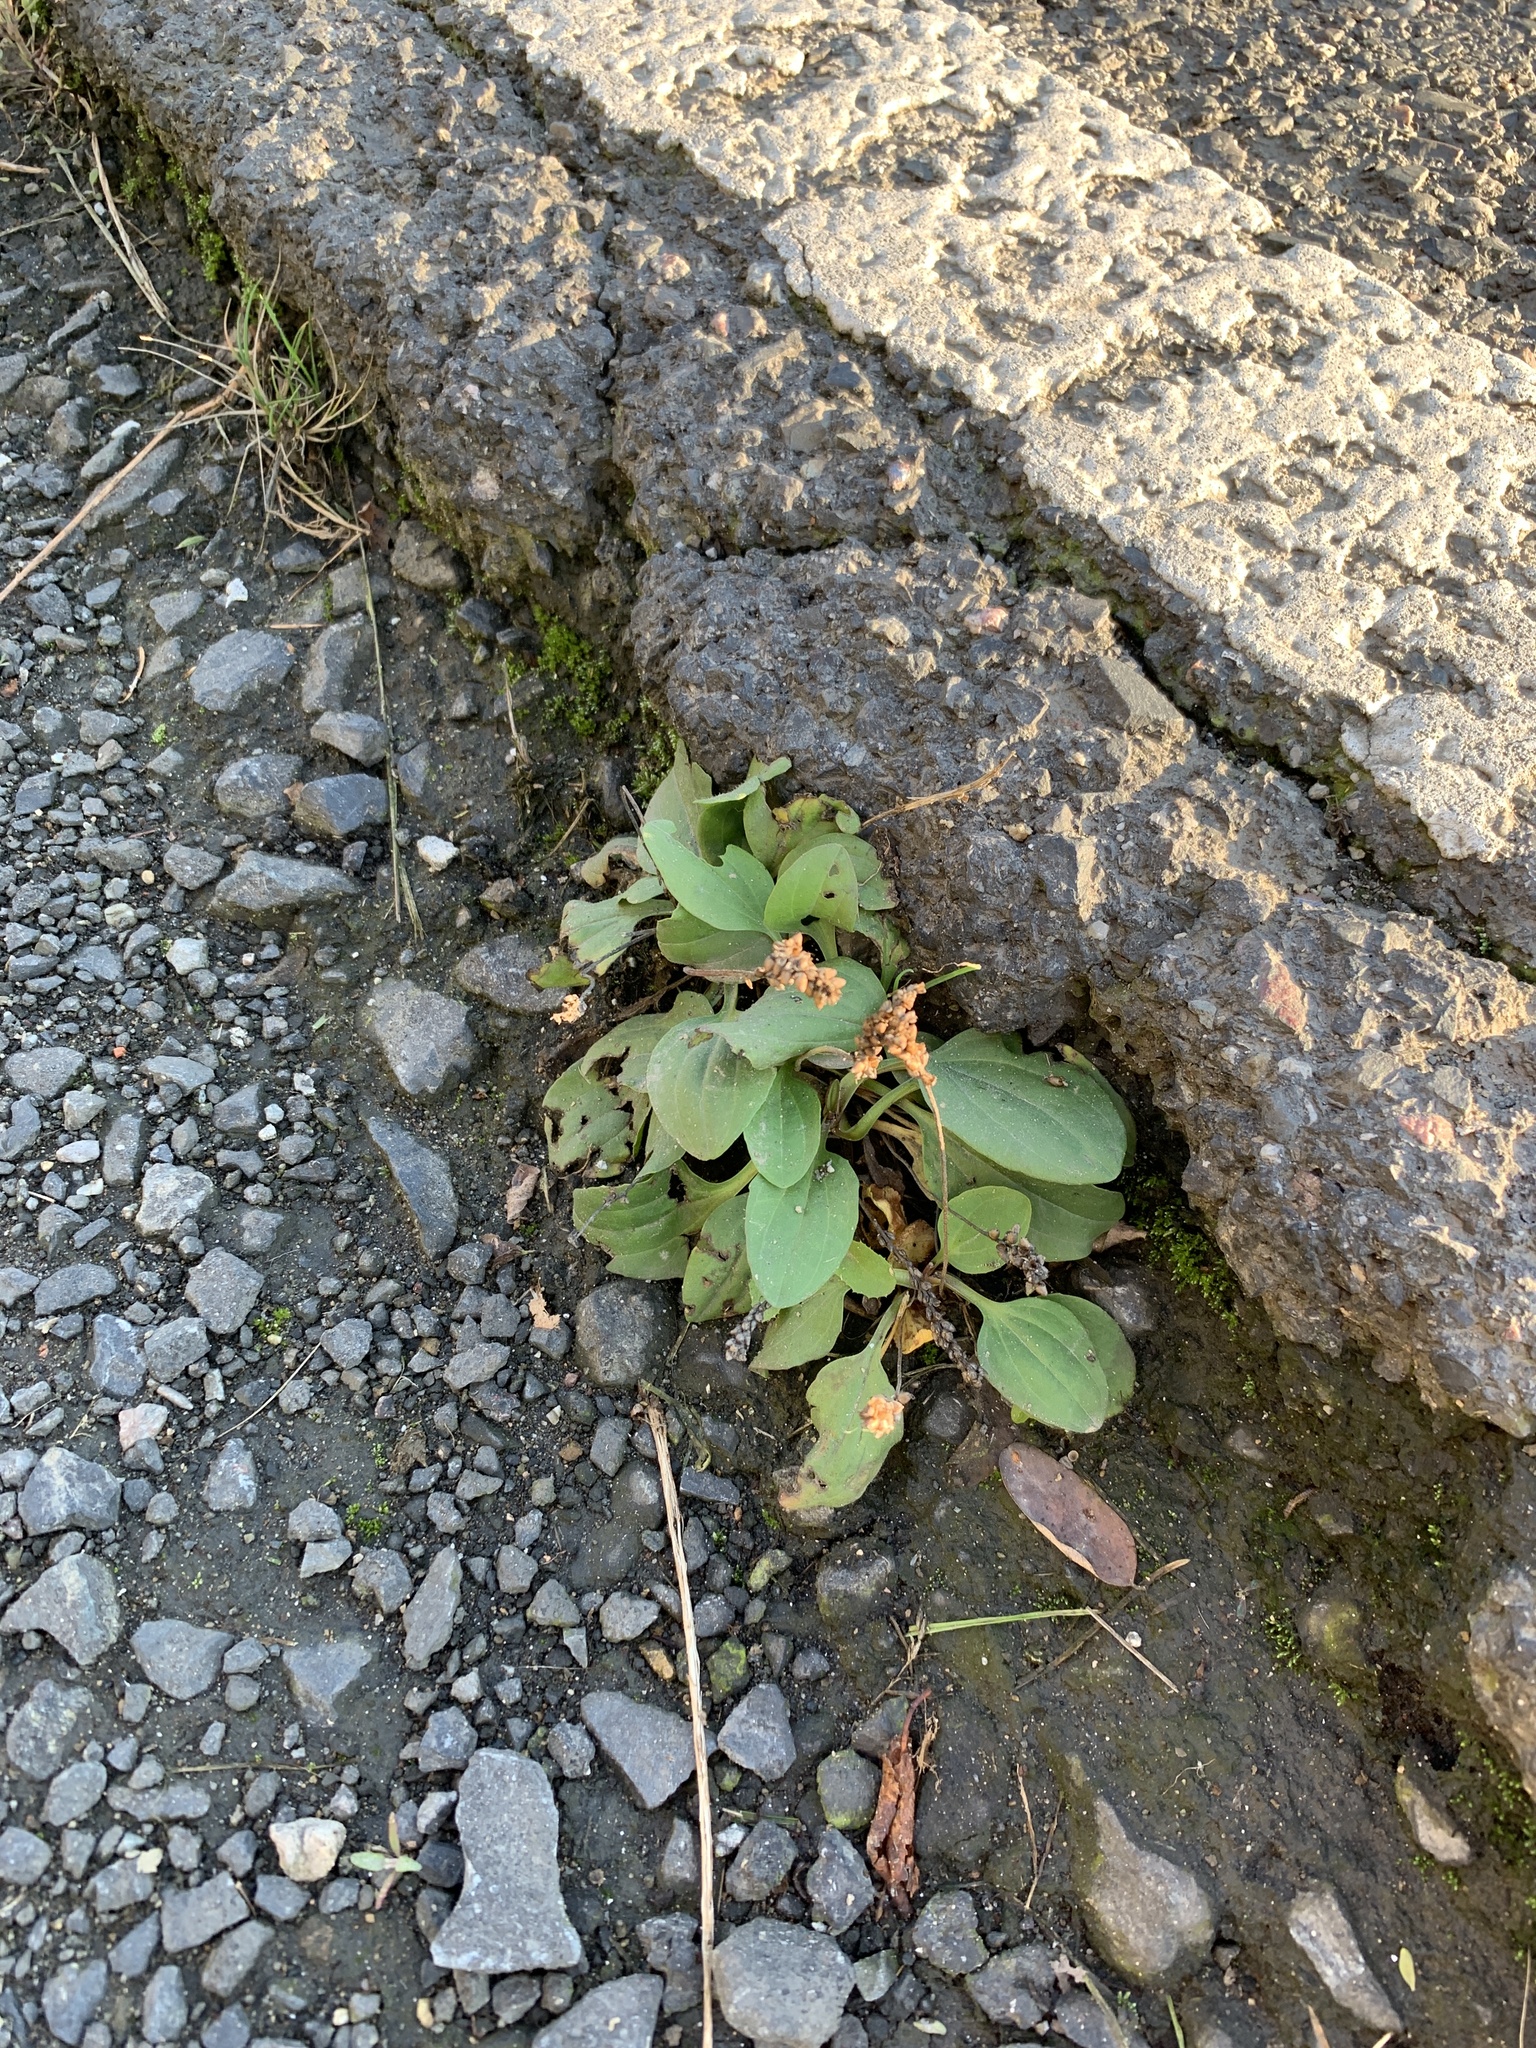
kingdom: Plantae
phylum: Tracheophyta
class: Magnoliopsida
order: Lamiales
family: Plantaginaceae
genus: Plantago
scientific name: Plantago major
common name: Common plantain
